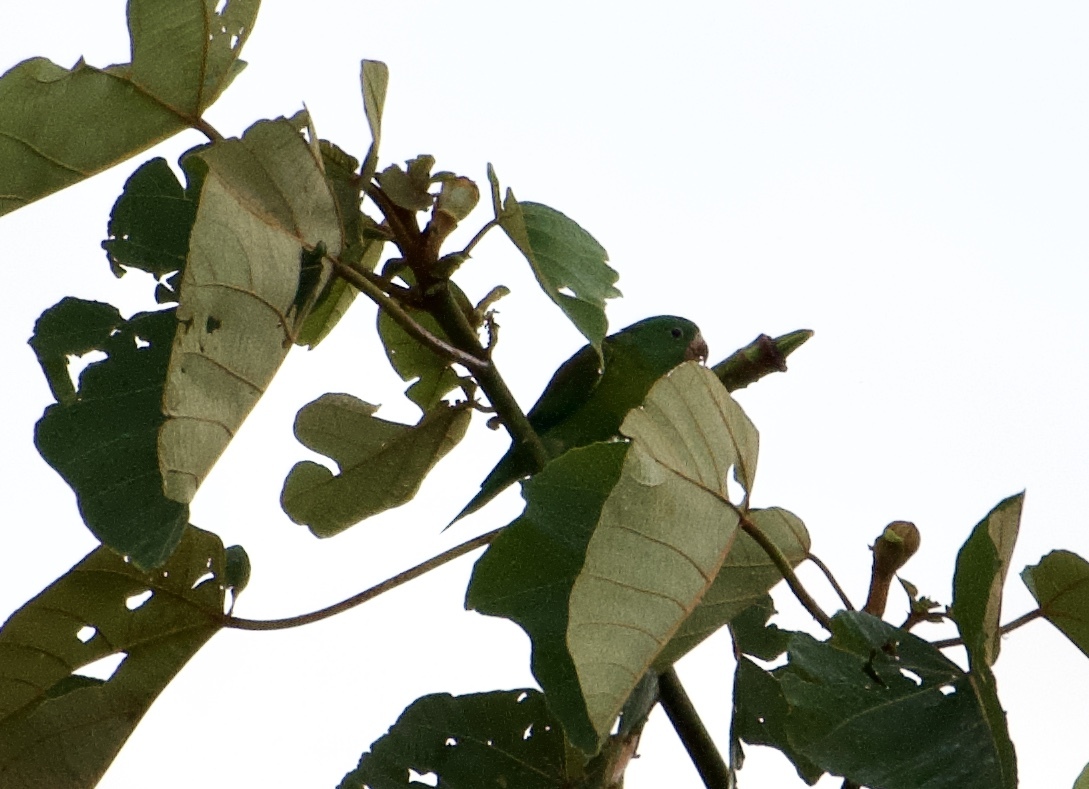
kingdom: Animalia
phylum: Chordata
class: Aves
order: Psittaciformes
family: Psittacidae
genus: Brotogeris
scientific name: Brotogeris jugularis
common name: Orange-chinned parakeet
